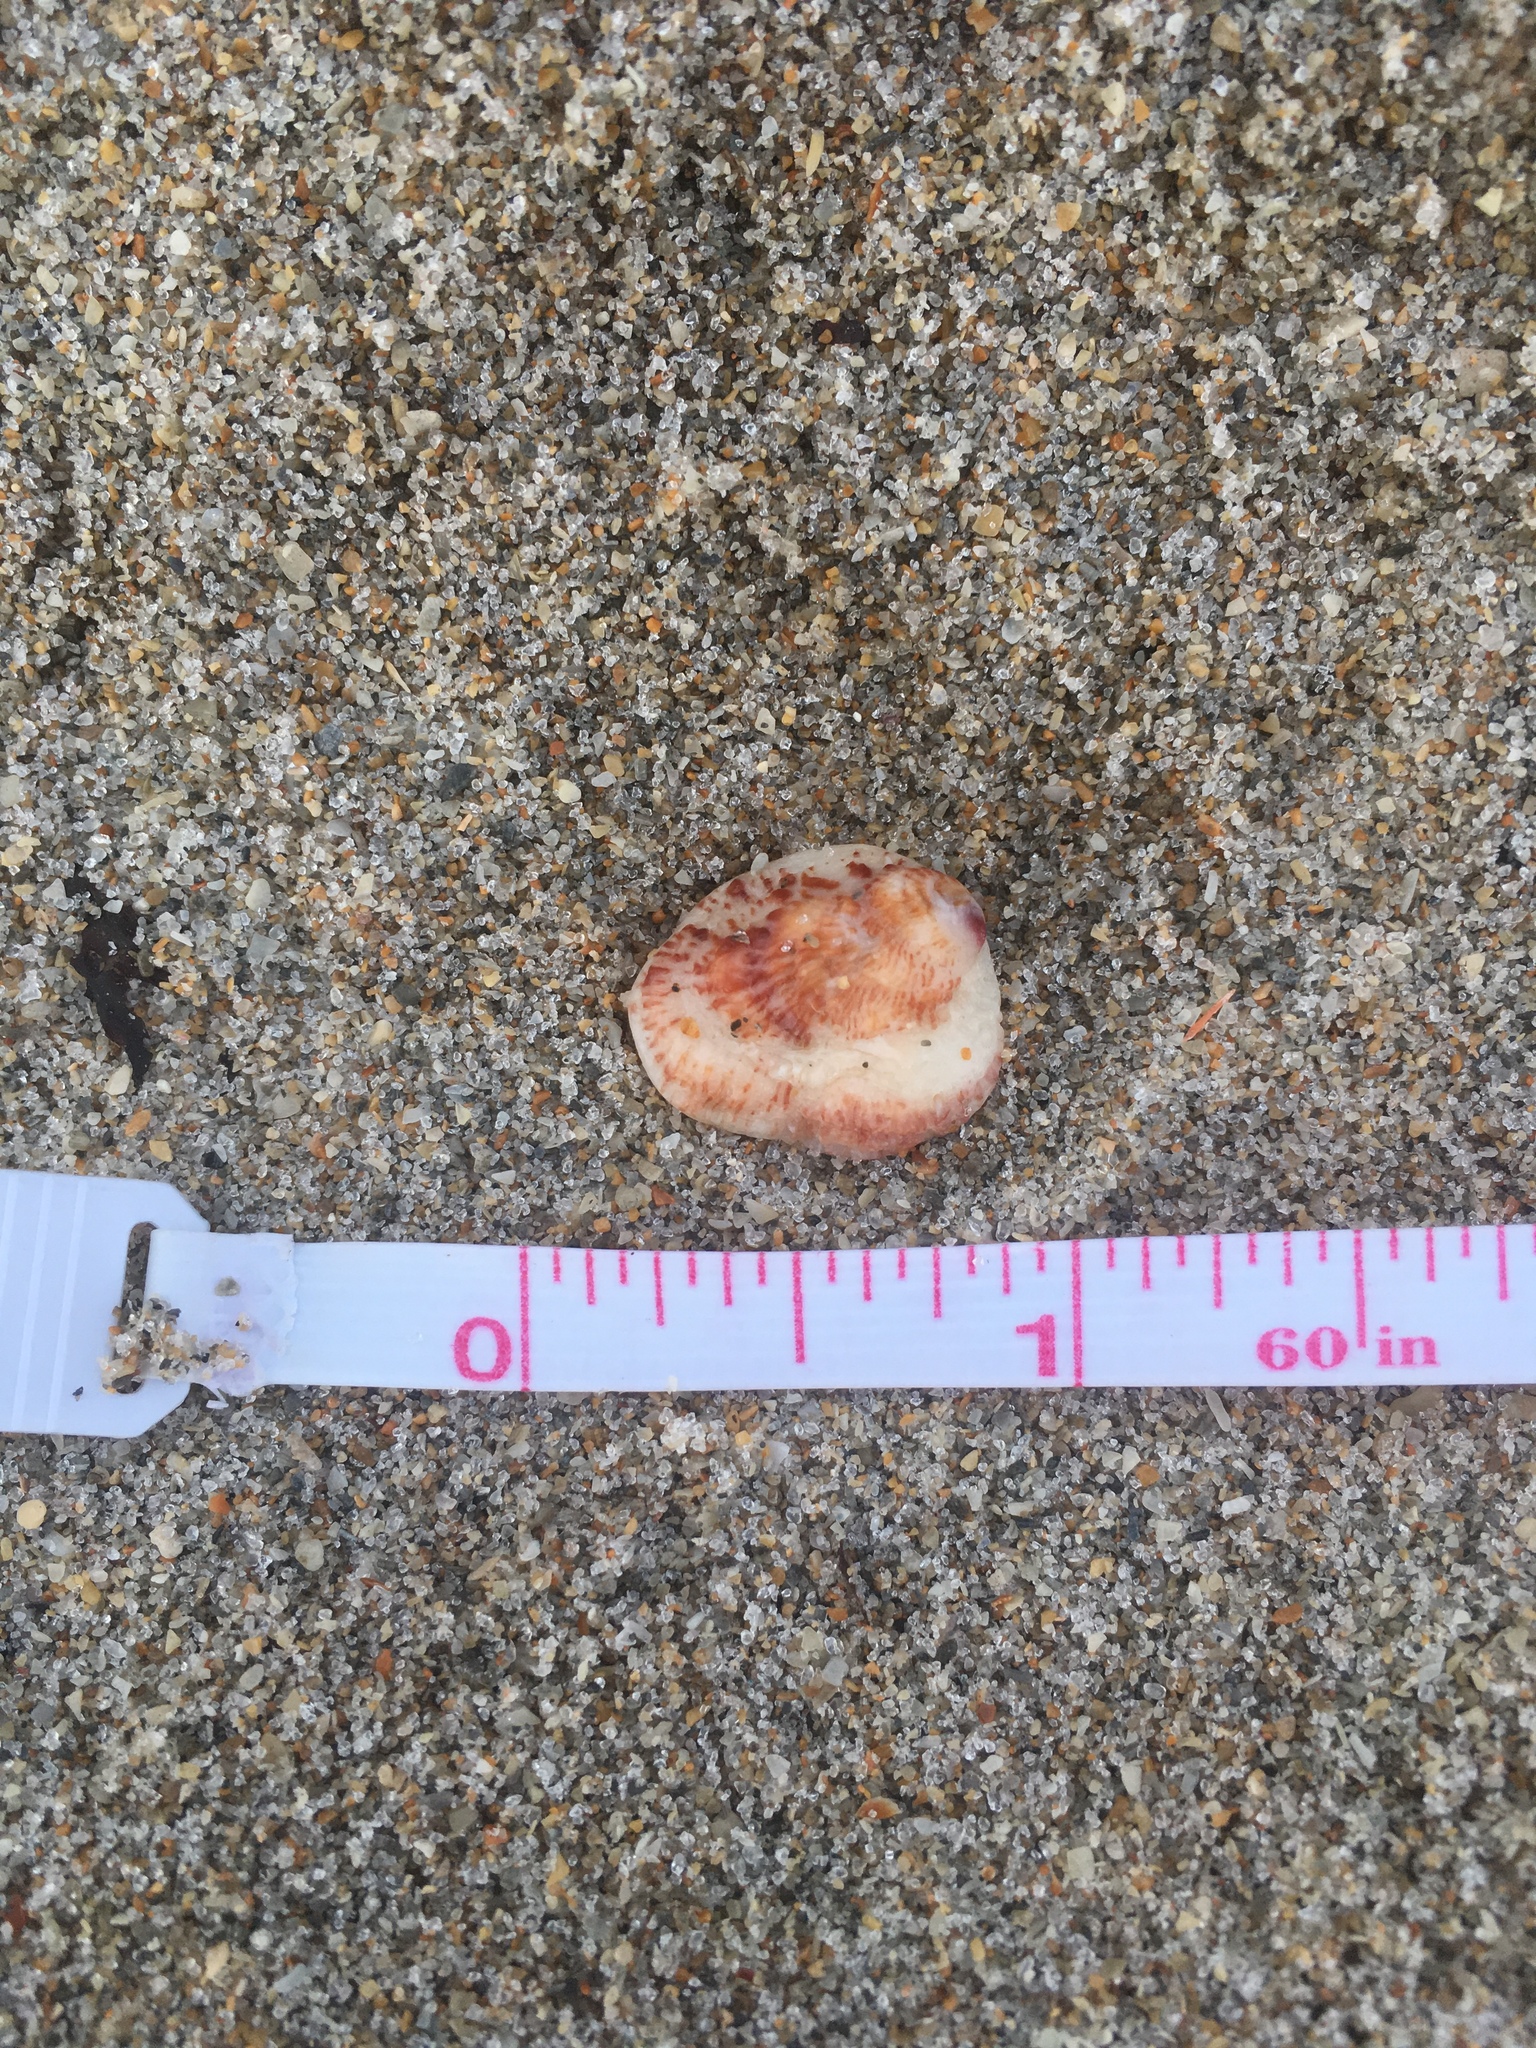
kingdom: Animalia
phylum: Mollusca
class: Bivalvia
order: Venerida
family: Chamidae
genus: Chama
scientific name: Chama congregata
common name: Corrugate jewelbox
